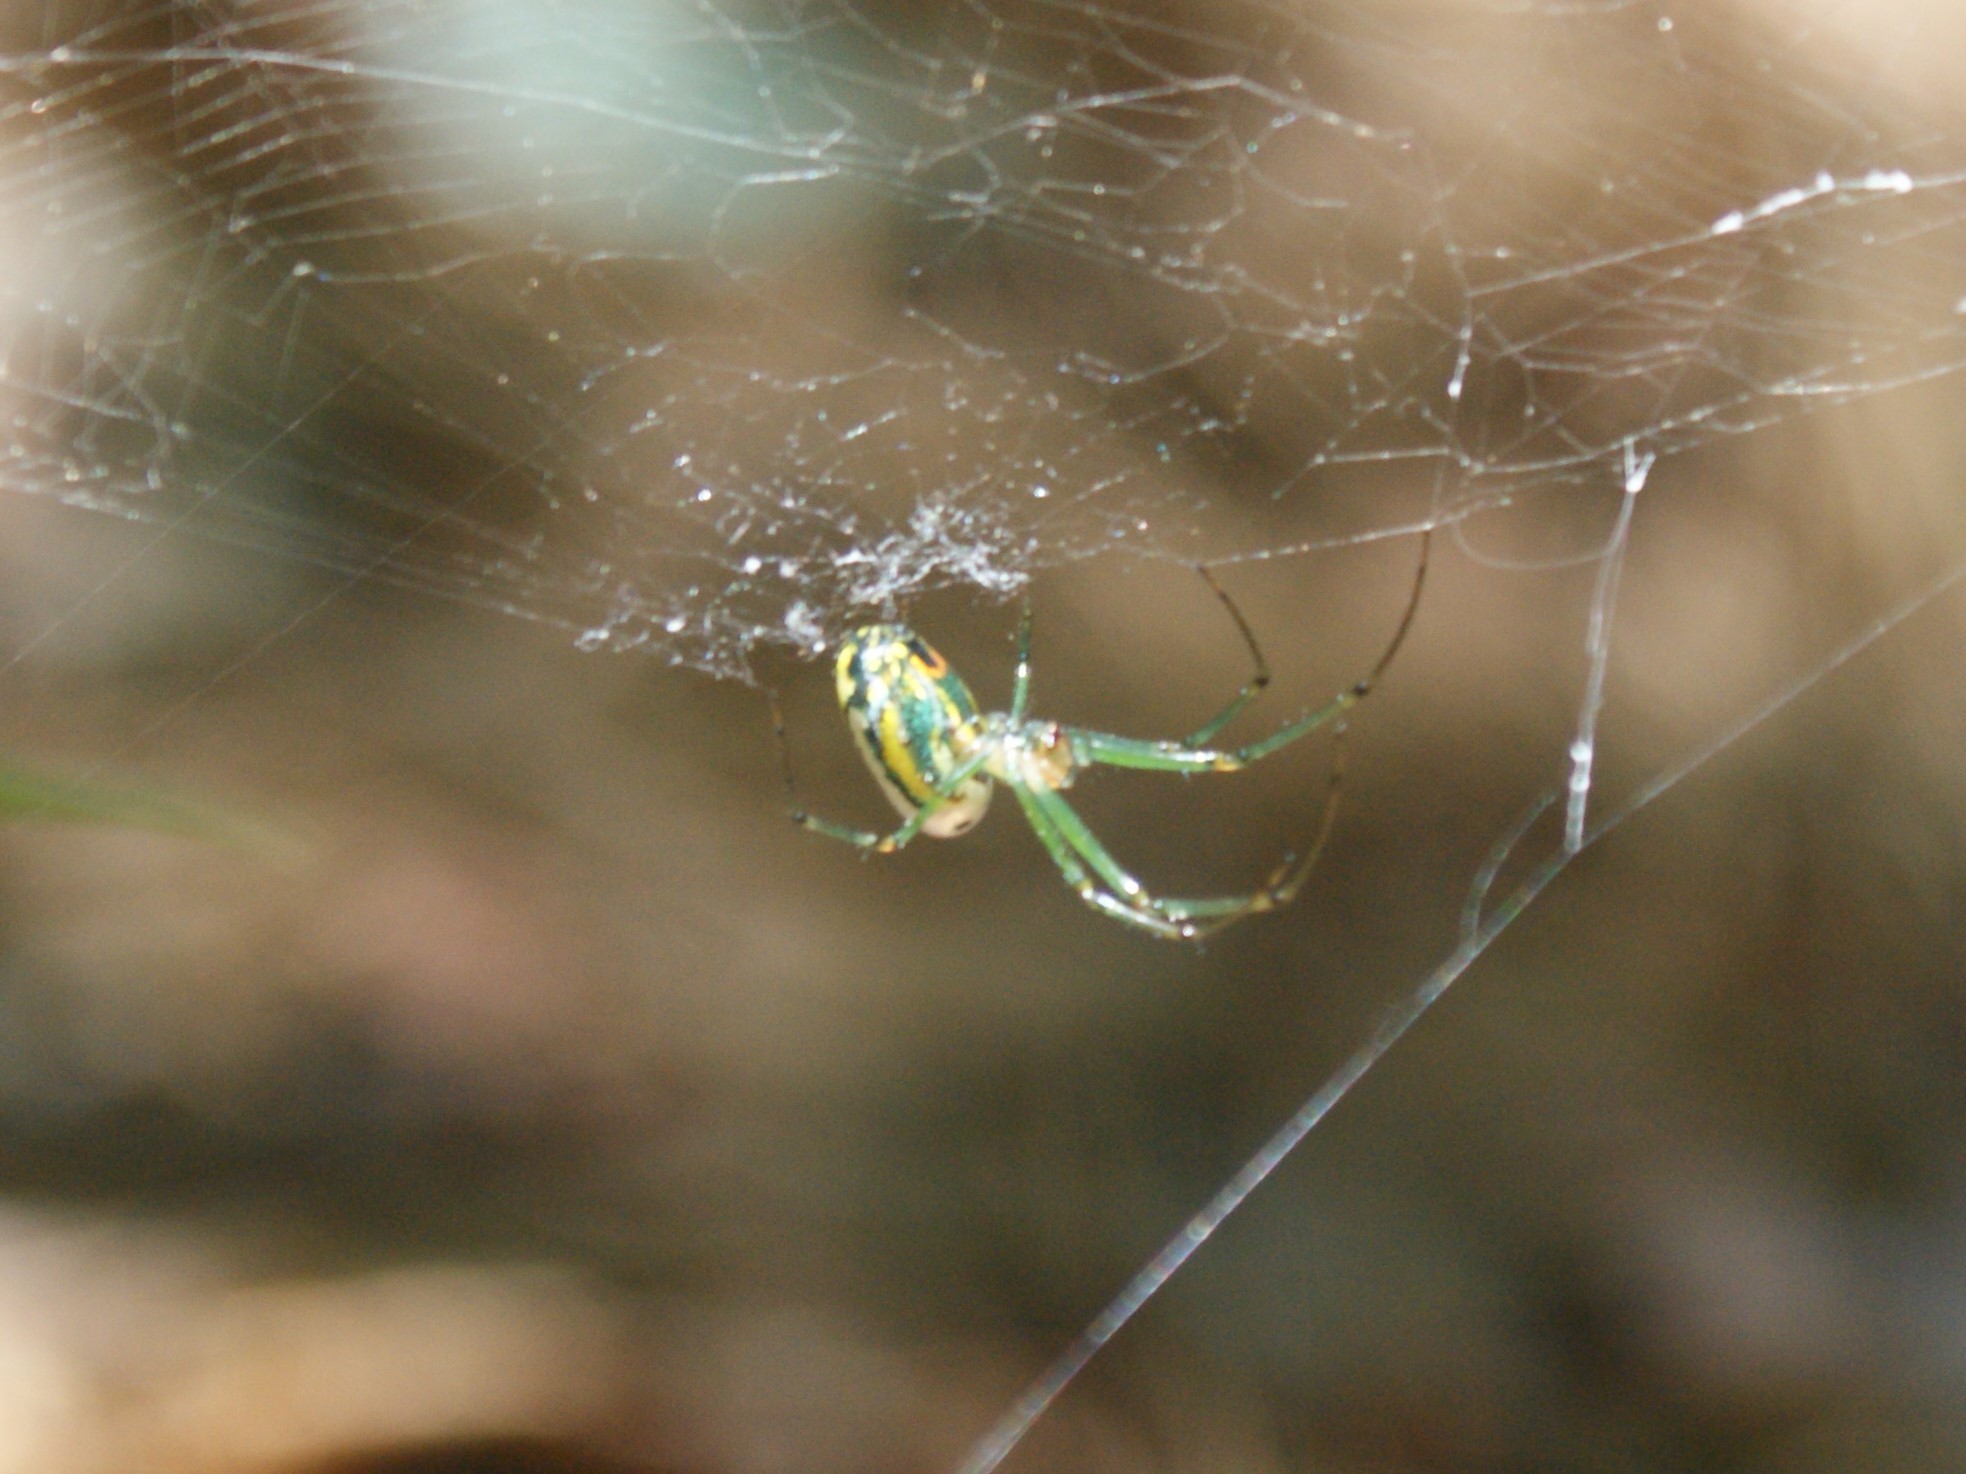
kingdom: Animalia
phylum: Arthropoda
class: Arachnida
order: Araneae
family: Tetragnathidae
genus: Leucauge
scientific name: Leucauge venusta
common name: Longjawed orb weavers
